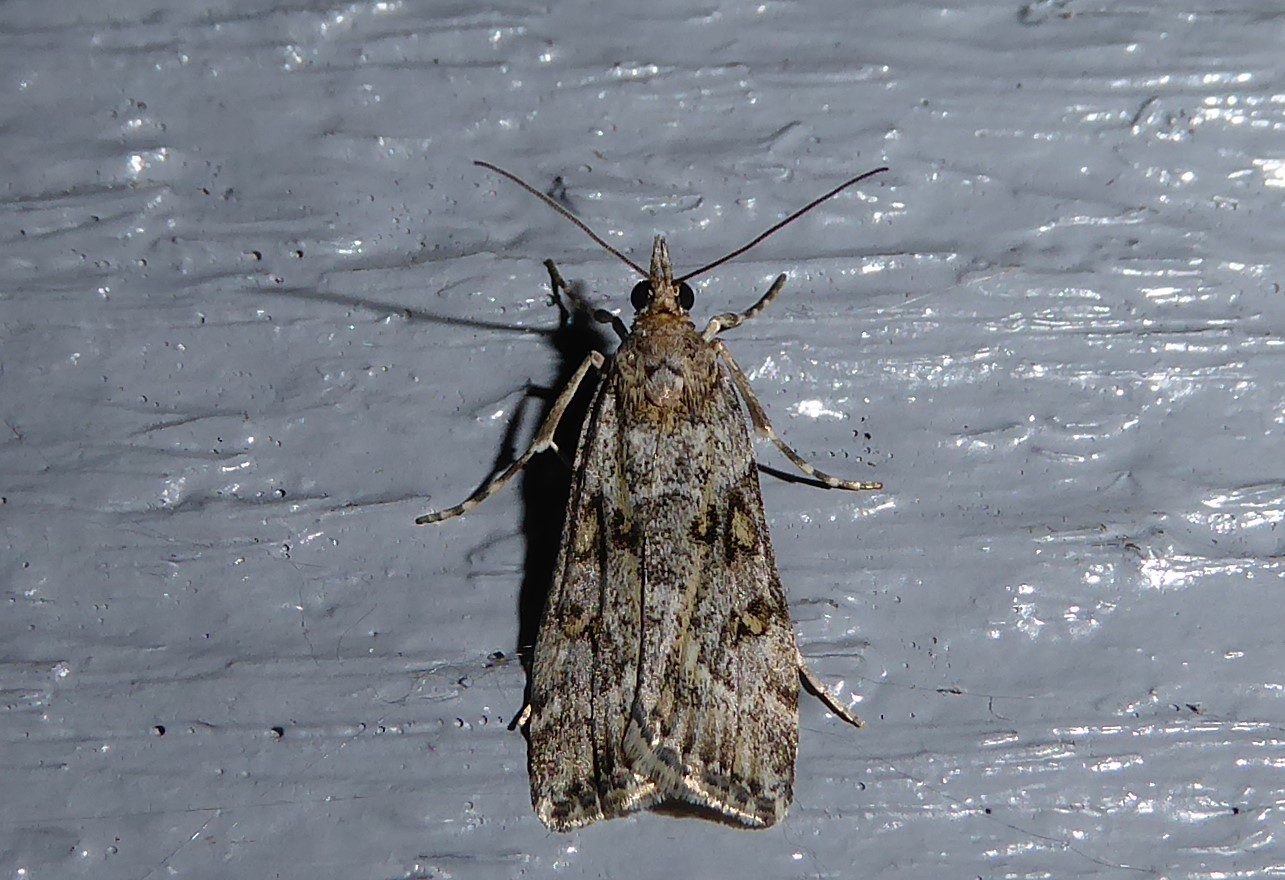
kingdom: Animalia
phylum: Arthropoda
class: Insecta
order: Lepidoptera
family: Crambidae
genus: Eudonia
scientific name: Eudonia diphtheralis
